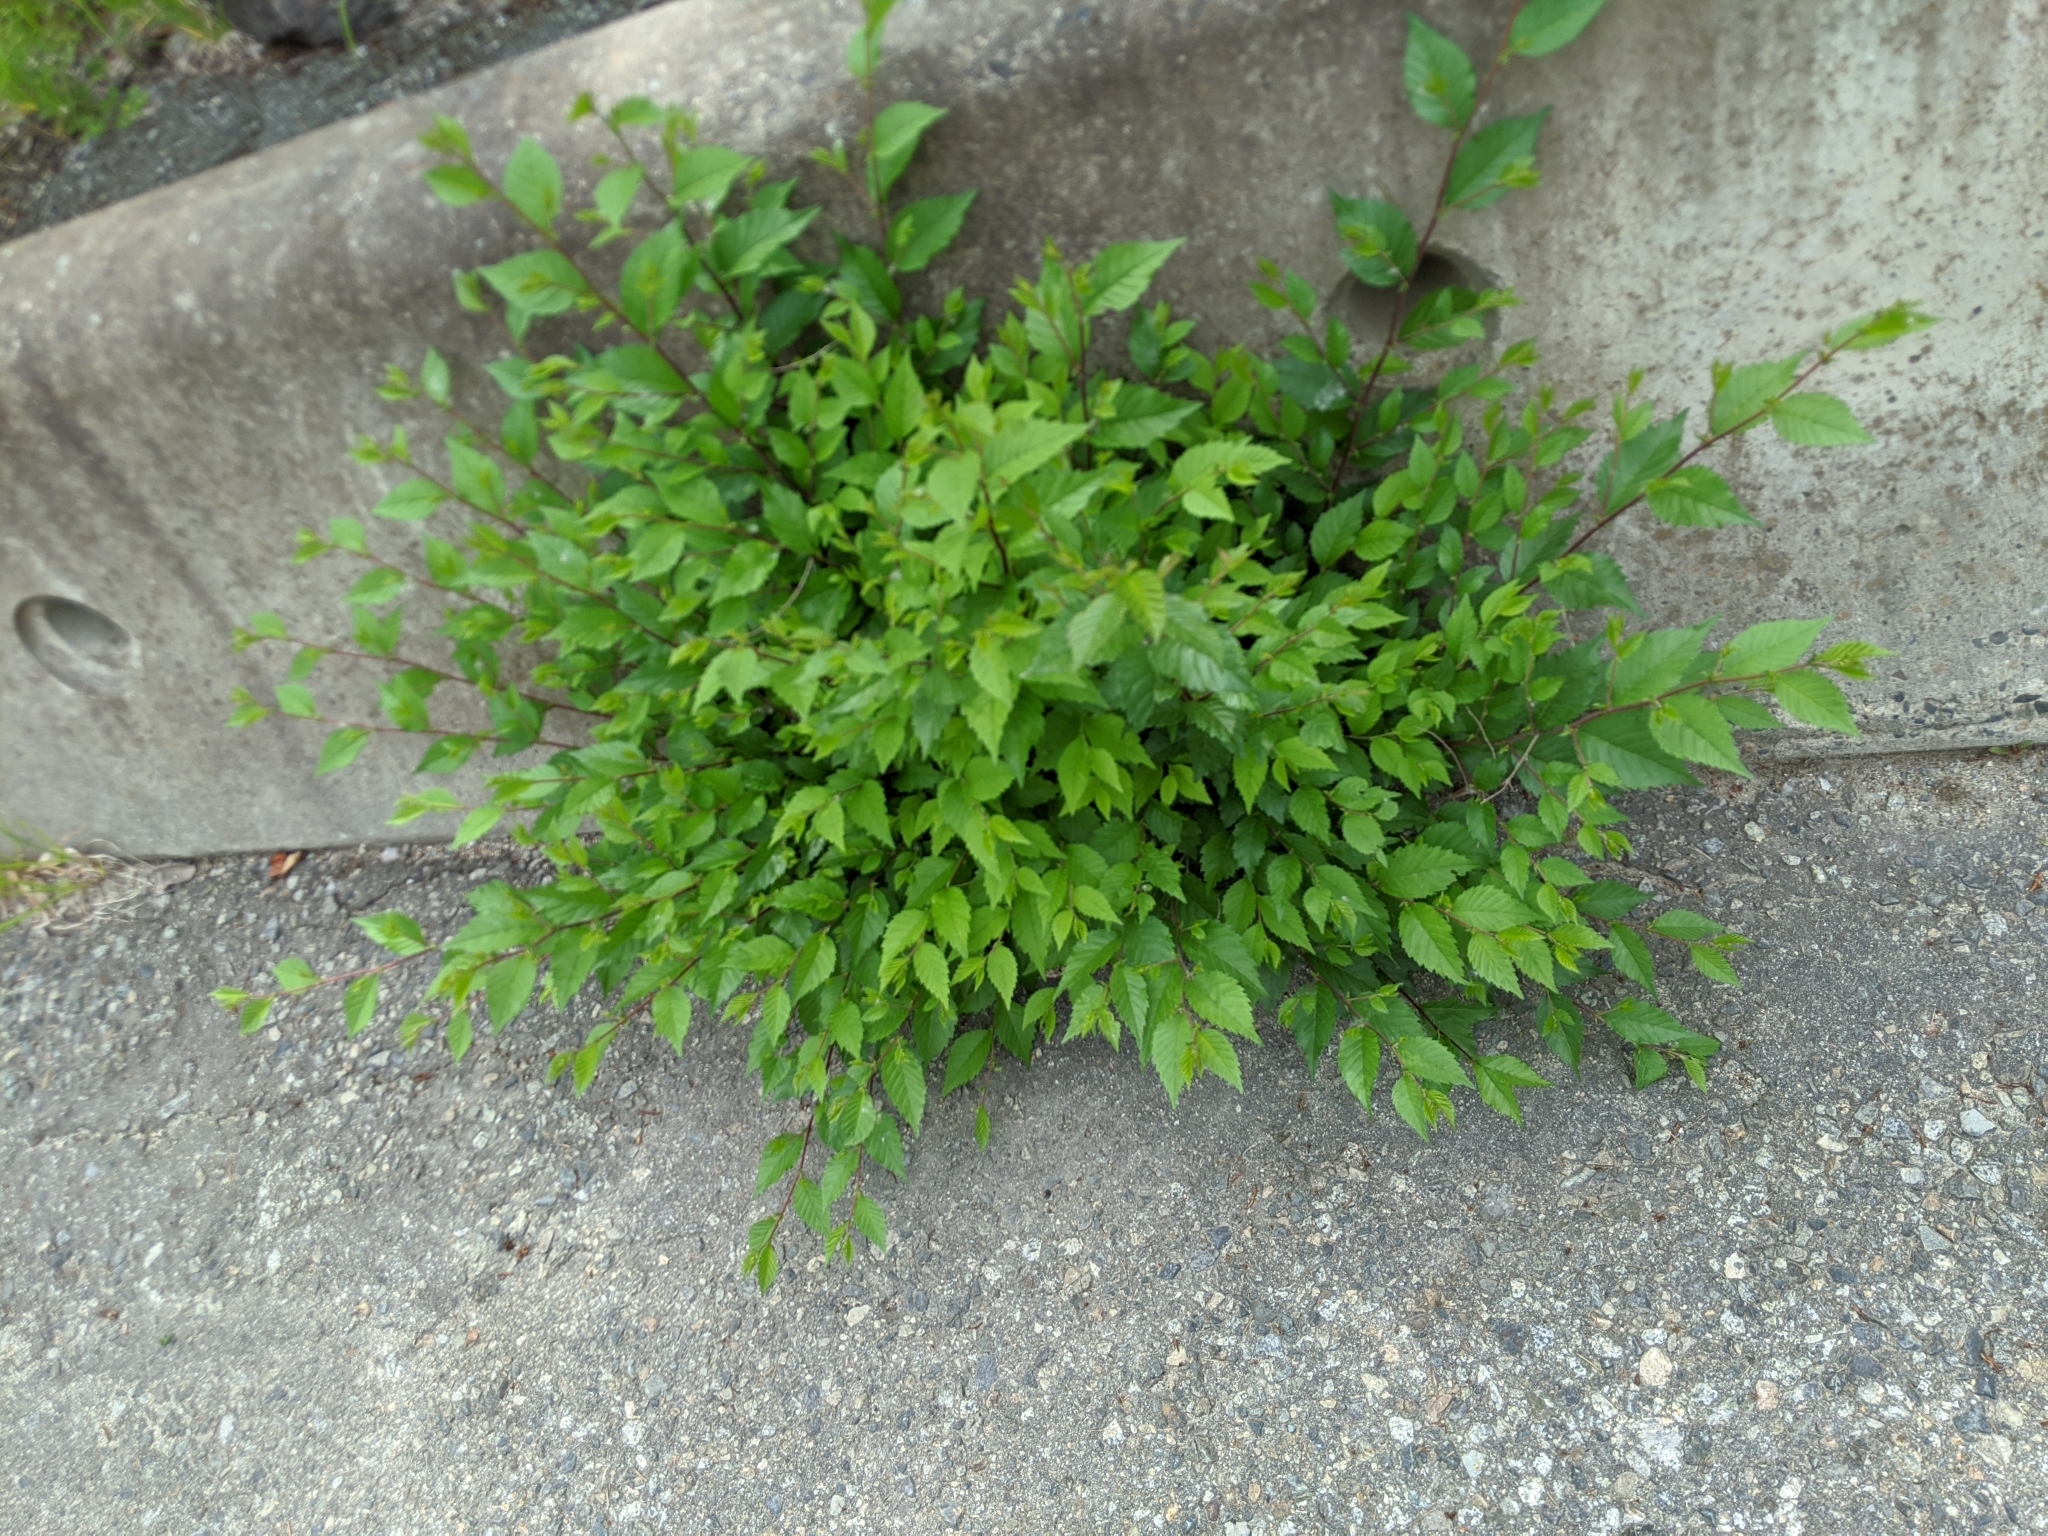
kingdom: Plantae
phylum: Tracheophyta
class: Magnoliopsida
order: Rosales
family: Ulmaceae
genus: Ulmus
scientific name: Ulmus pumila
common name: Siberian elm
